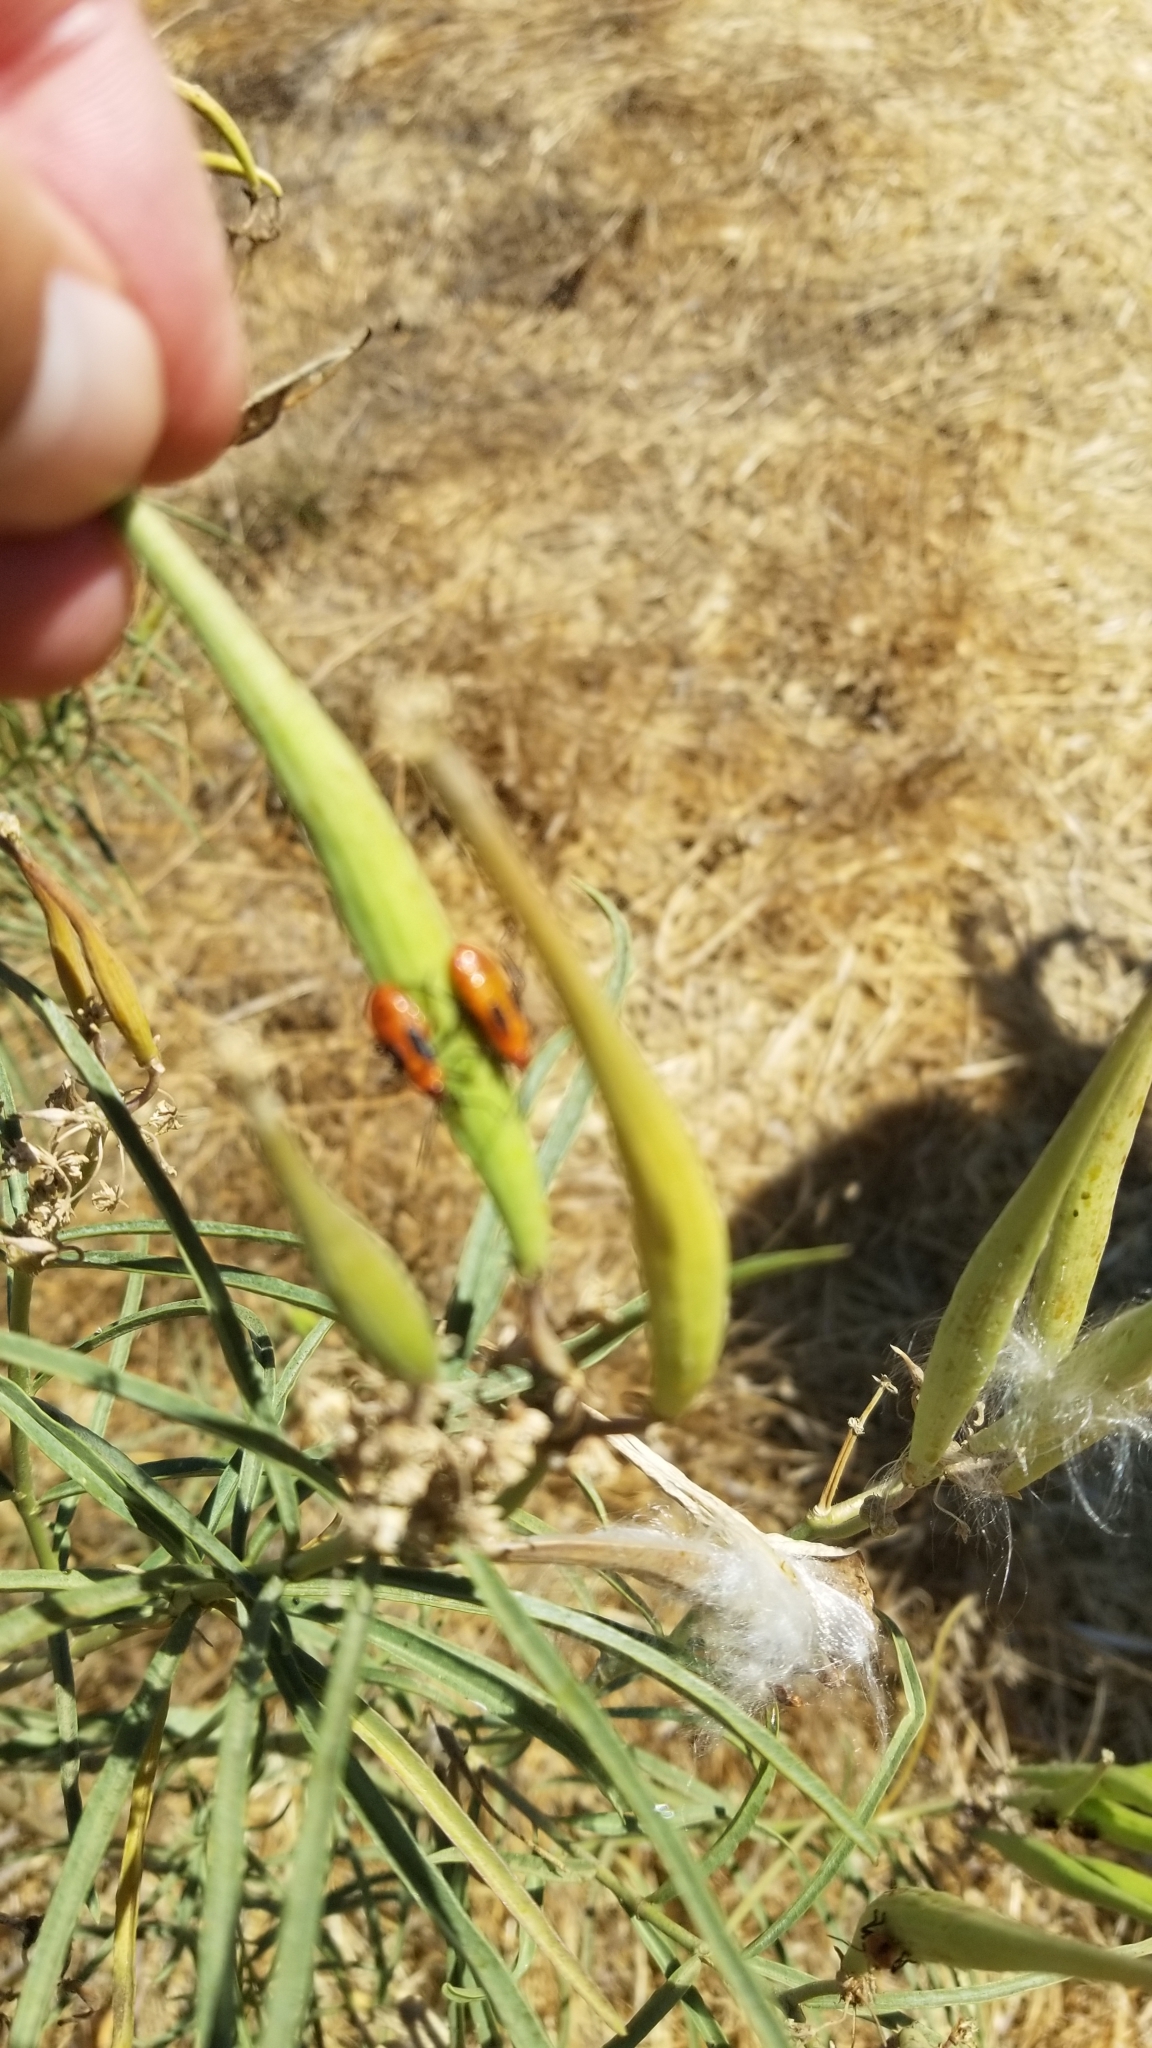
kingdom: Plantae
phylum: Tracheophyta
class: Magnoliopsida
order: Gentianales
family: Apocynaceae
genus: Asclepias
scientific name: Asclepias fascicularis
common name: Mexican milkweed
